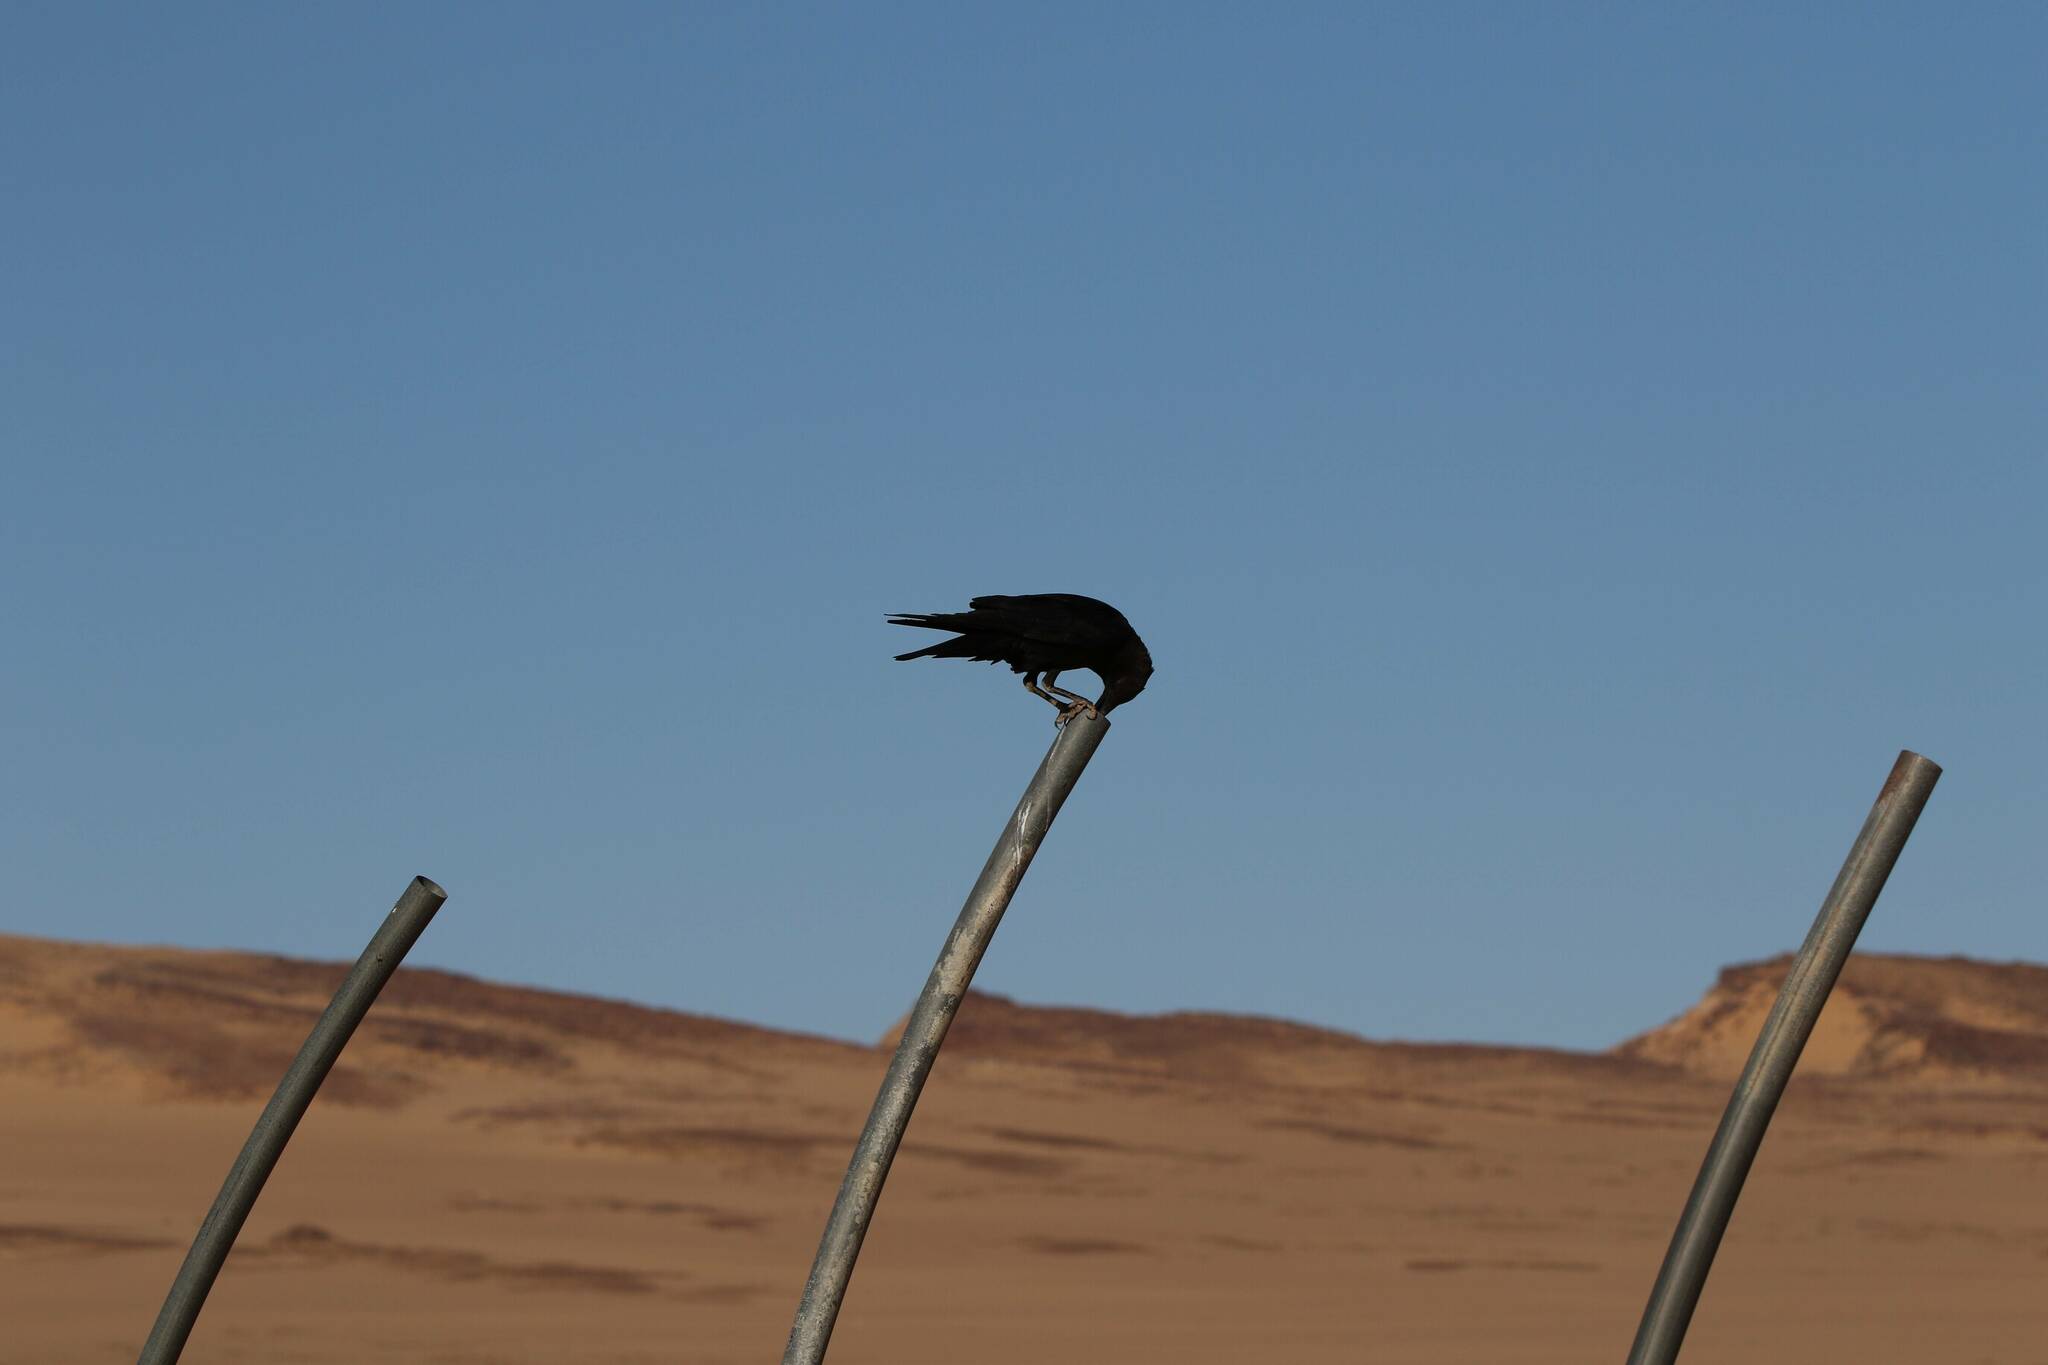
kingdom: Animalia
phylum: Chordata
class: Aves
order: Passeriformes
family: Corvidae
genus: Corvus
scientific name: Corvus ruficollis
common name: Brown-necked raven
